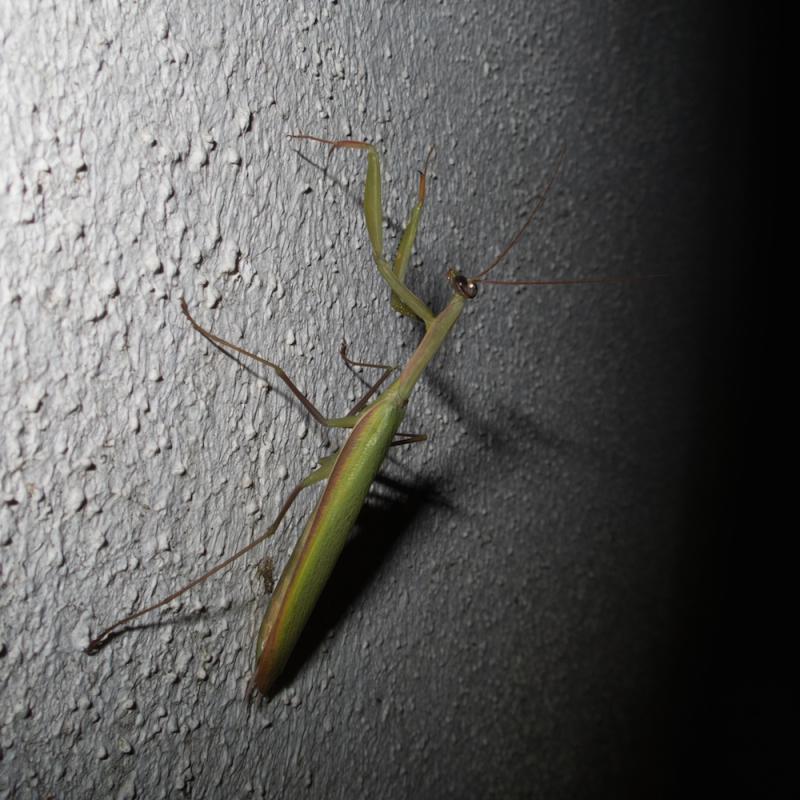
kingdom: Animalia
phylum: Arthropoda
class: Insecta
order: Mantodea
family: Mantidae
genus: Mantis
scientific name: Mantis religiosa
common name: Praying mantis
